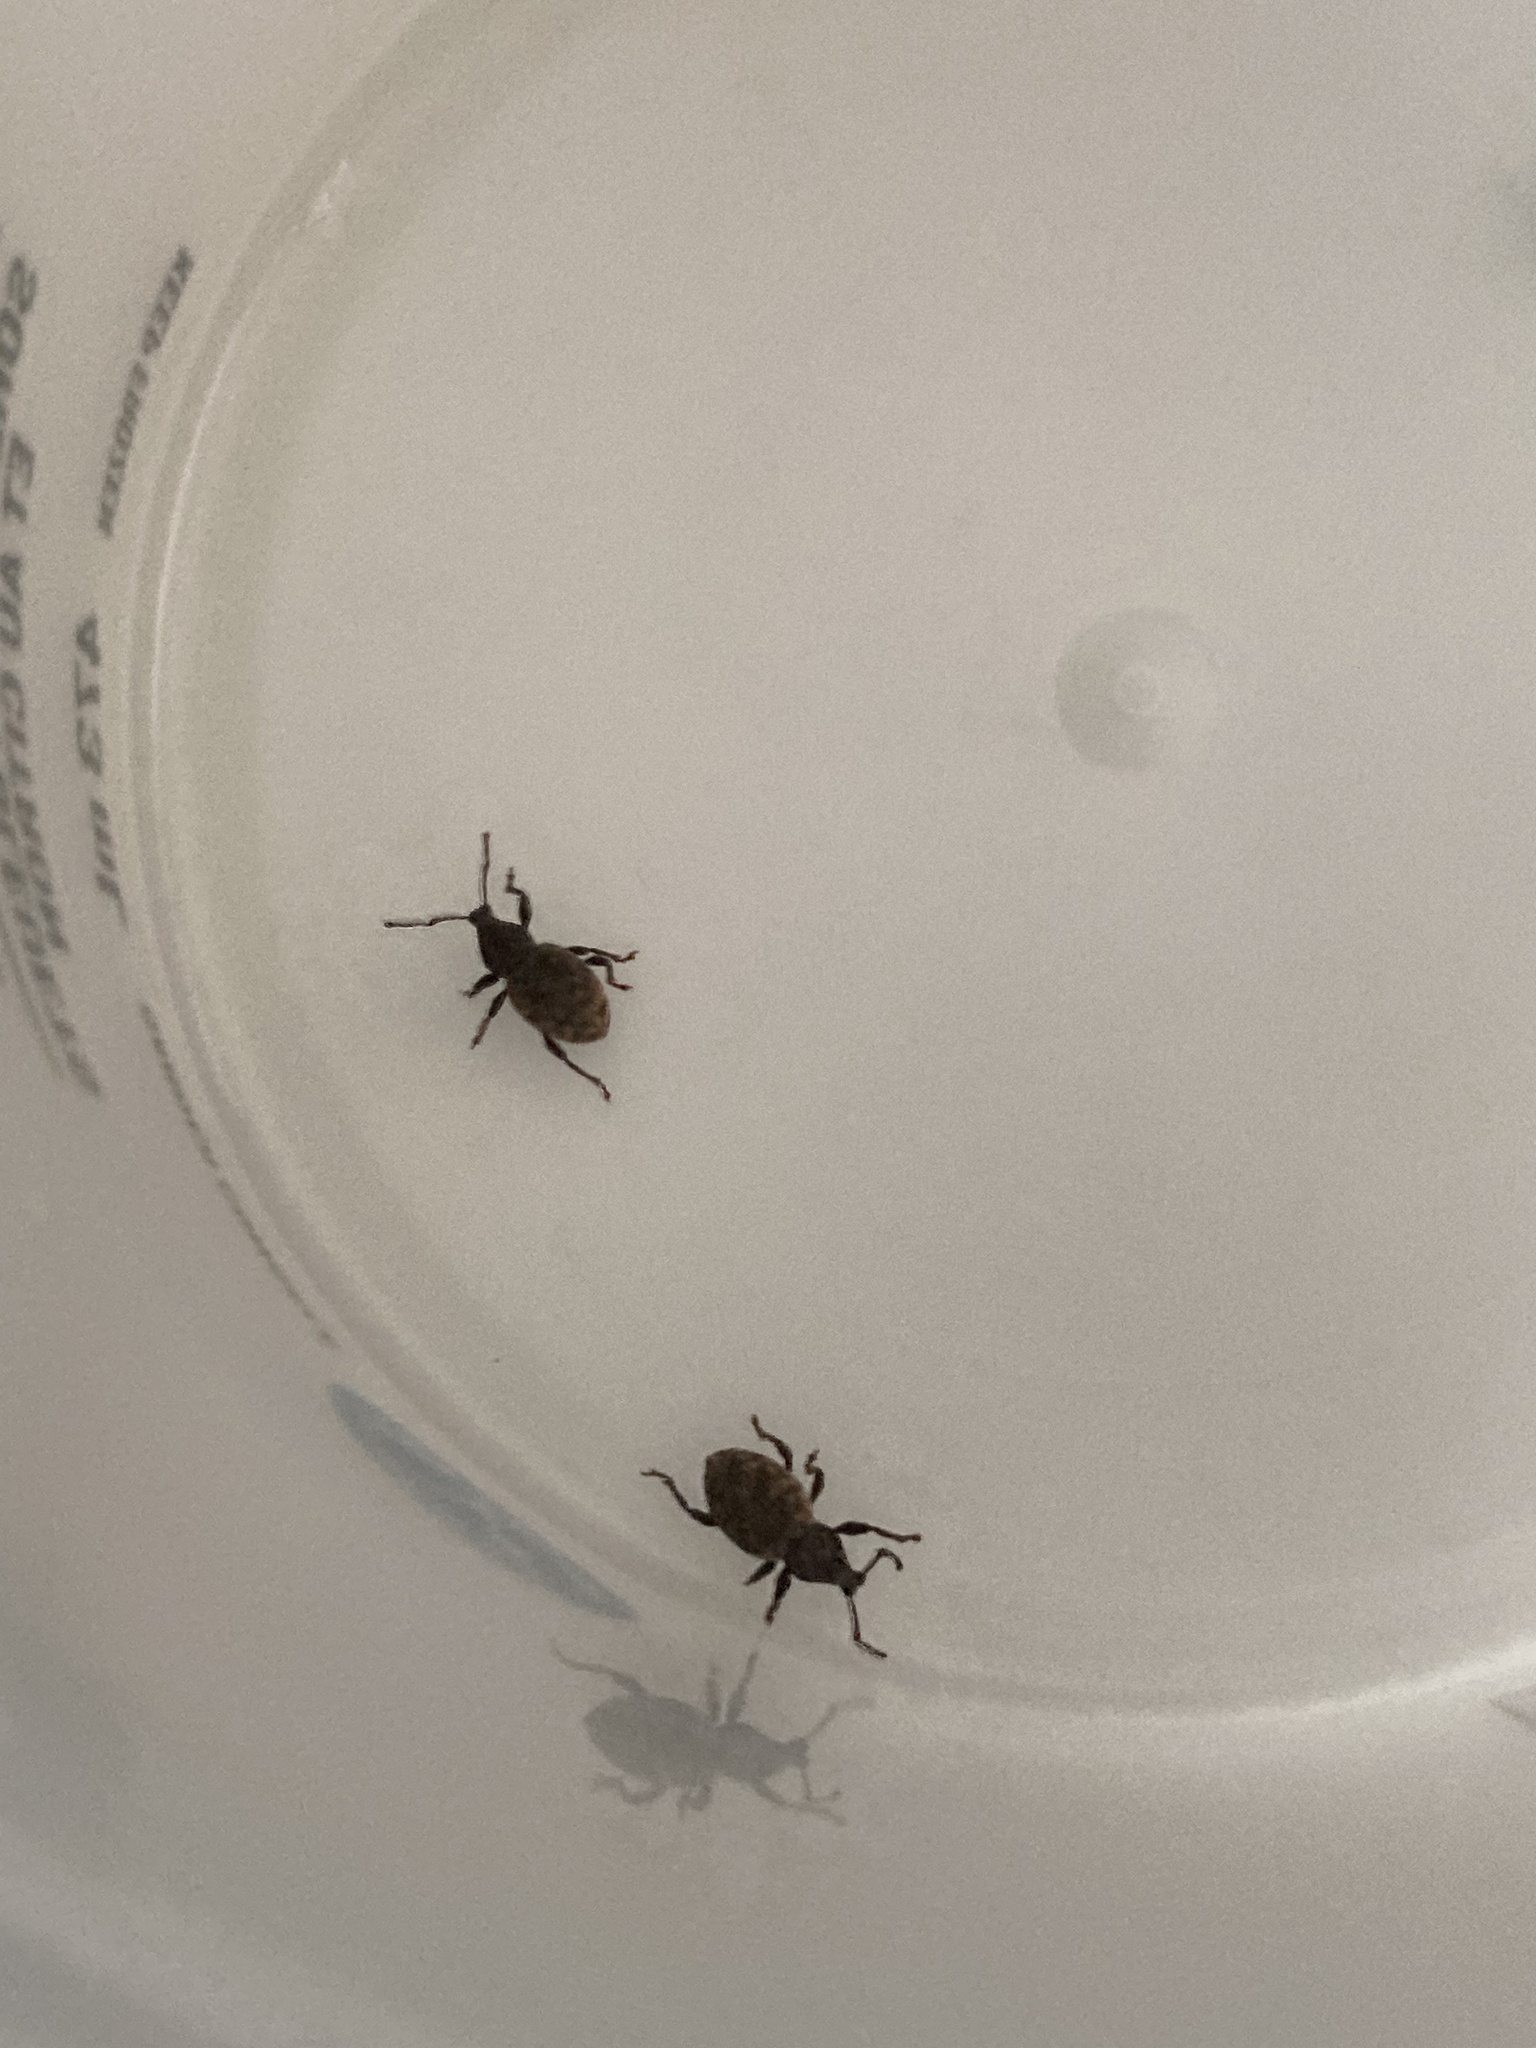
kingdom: Animalia
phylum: Arthropoda
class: Insecta
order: Coleoptera
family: Curculionidae
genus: Otiorhynchus
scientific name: Otiorhynchus raucus
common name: Weevil
